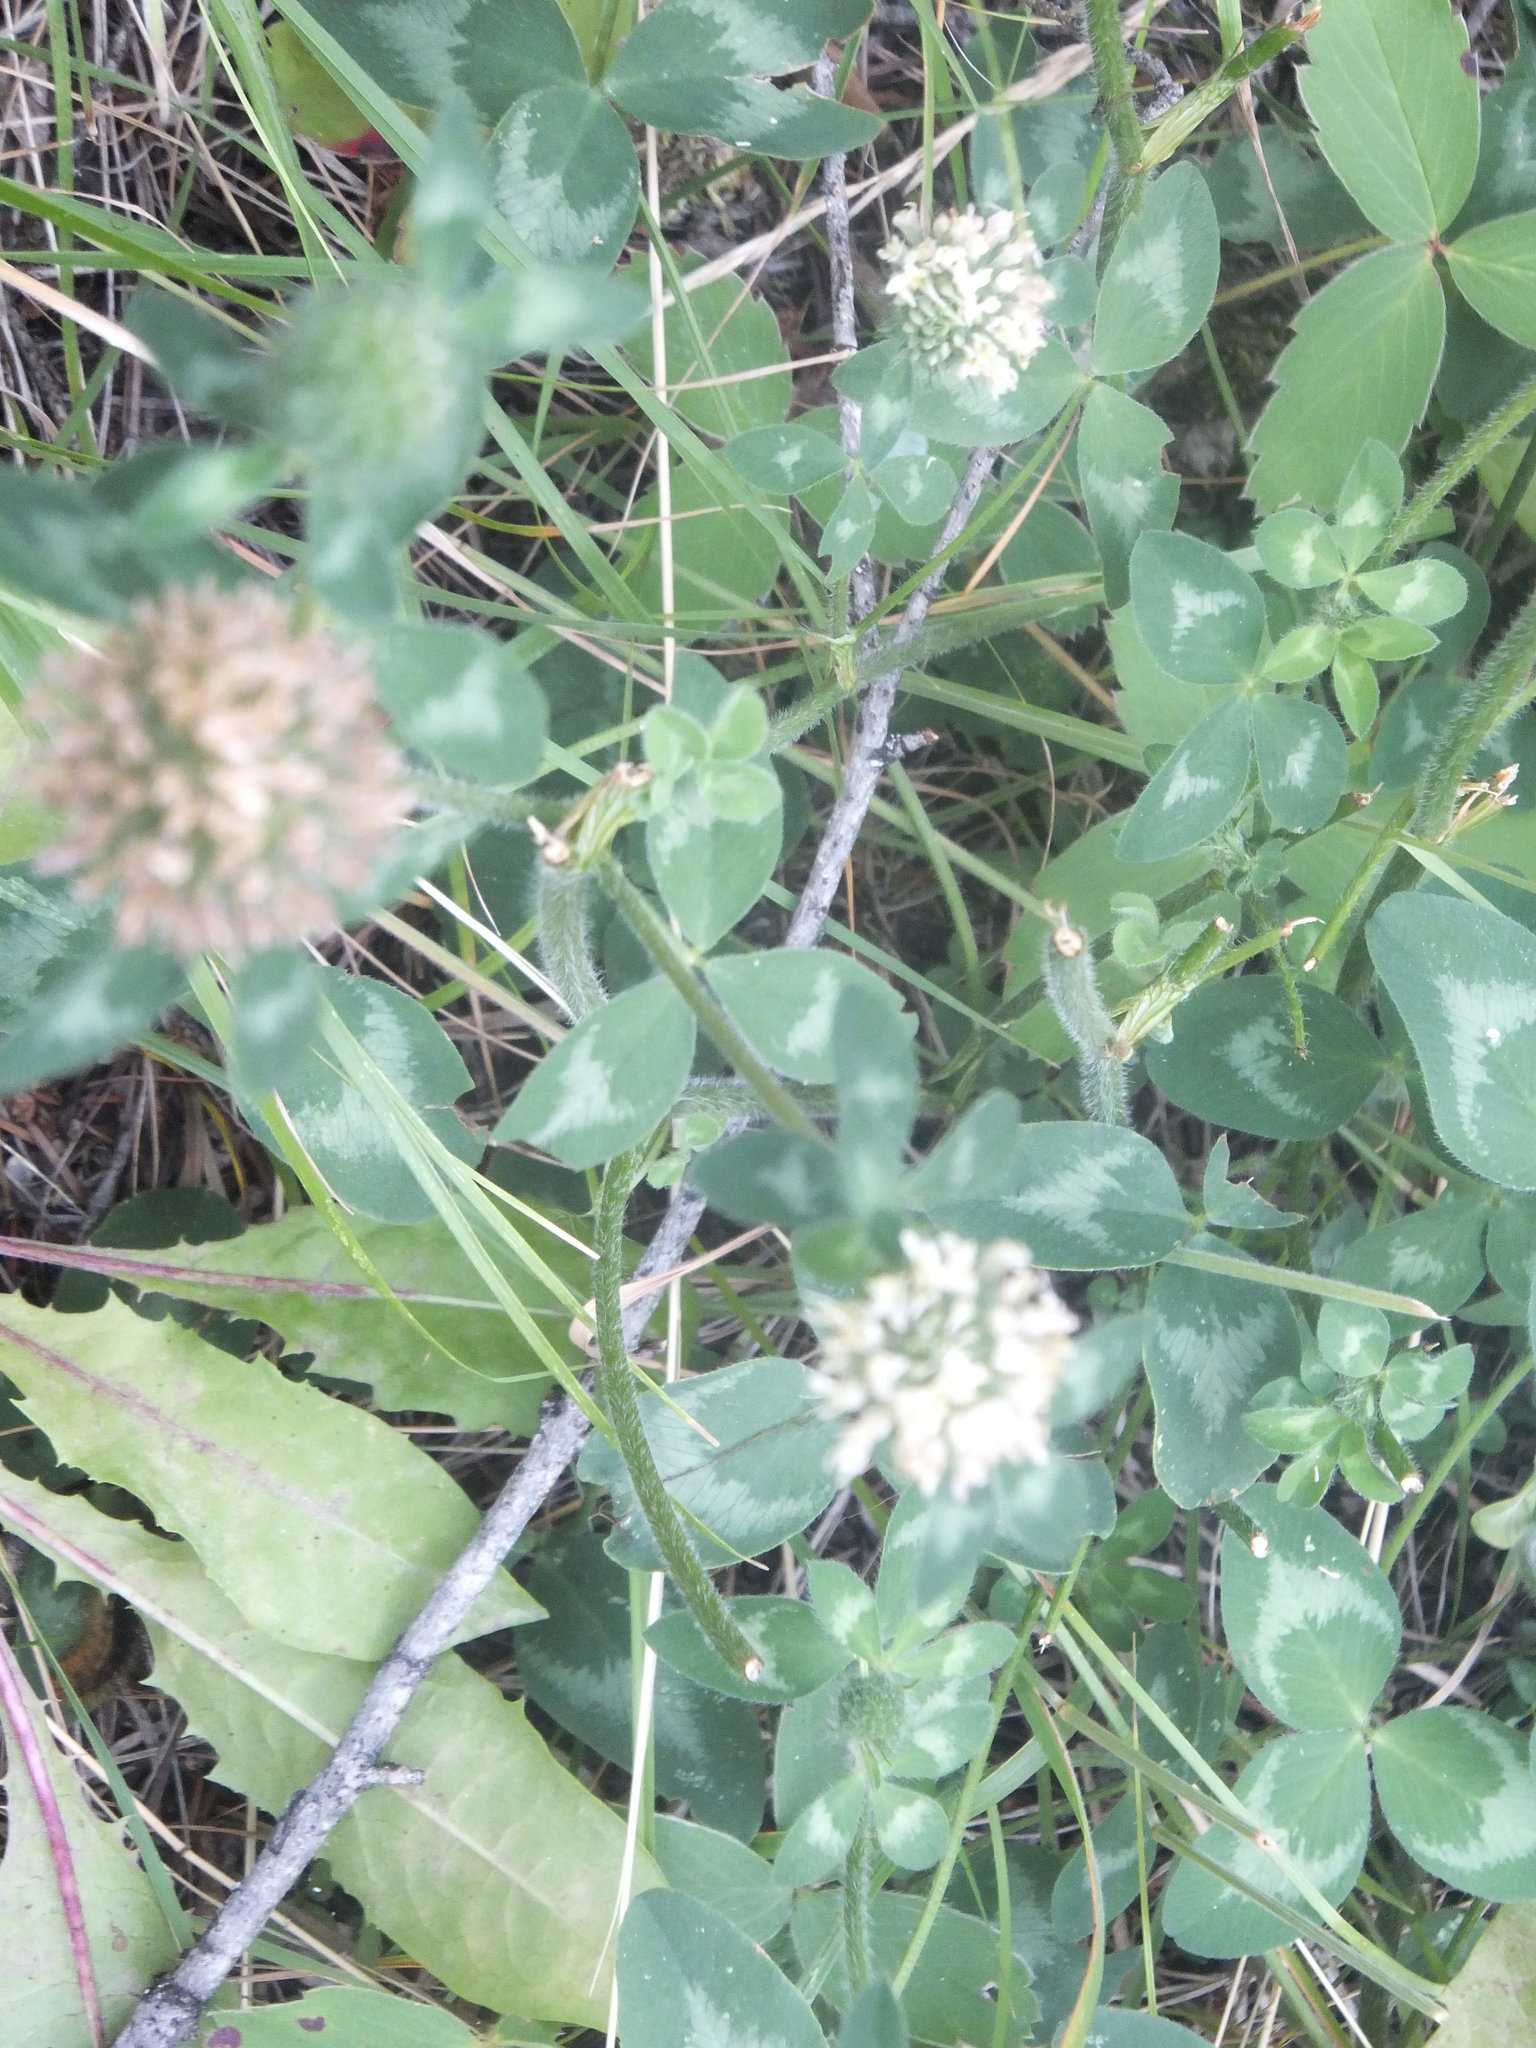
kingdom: Plantae
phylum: Tracheophyta
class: Magnoliopsida
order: Fabales
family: Fabaceae
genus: Trifolium
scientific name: Trifolium pratense
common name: Red clover
